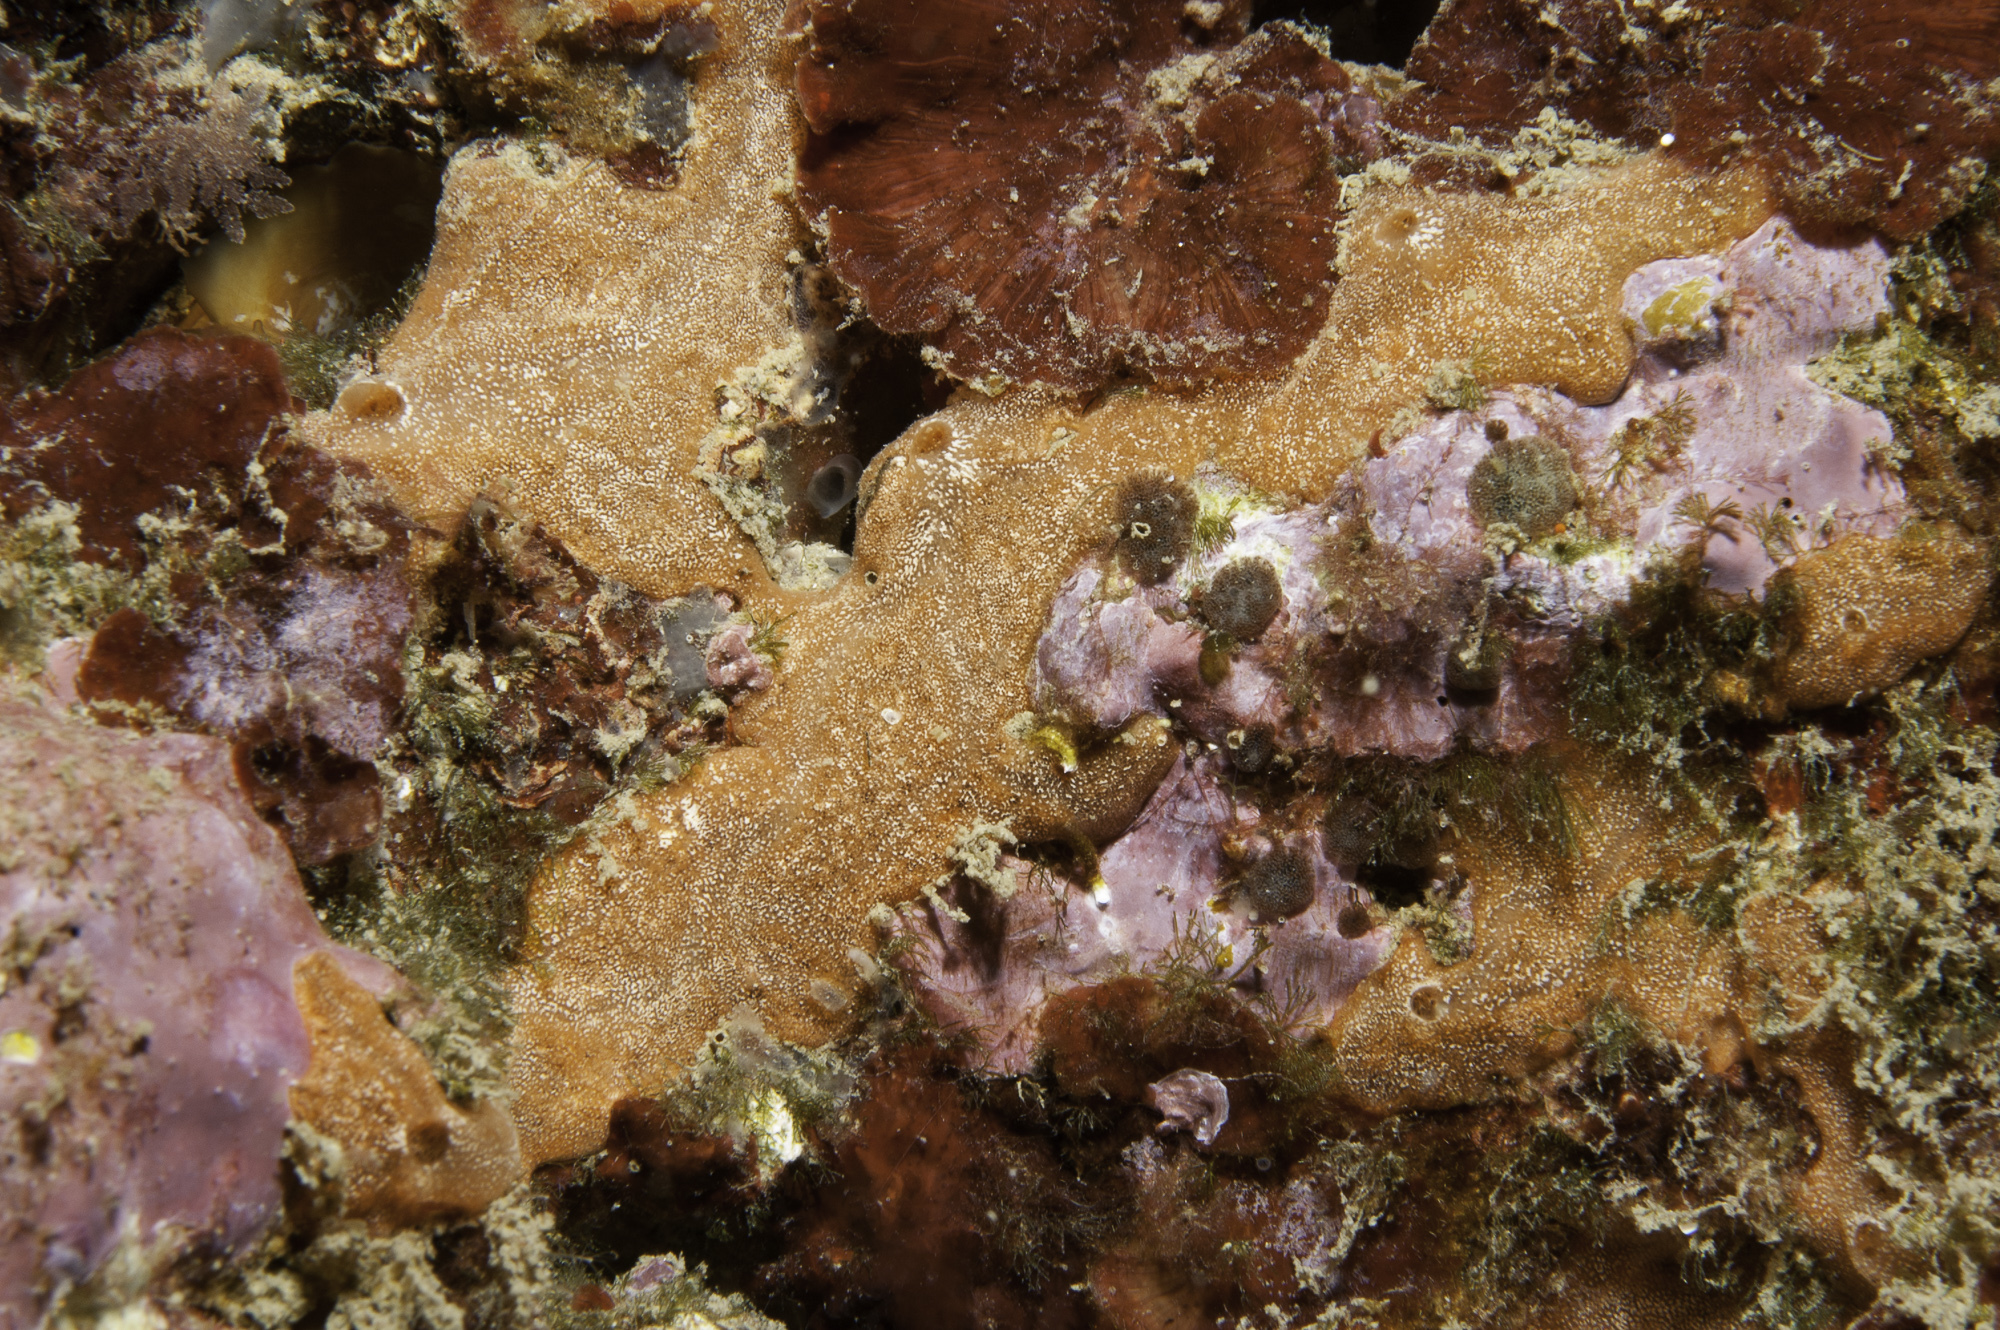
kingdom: Animalia
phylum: Porifera
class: Demospongiae
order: Poecilosclerida
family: Microcionidae
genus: Clathria
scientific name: Clathria jolicoeuri
